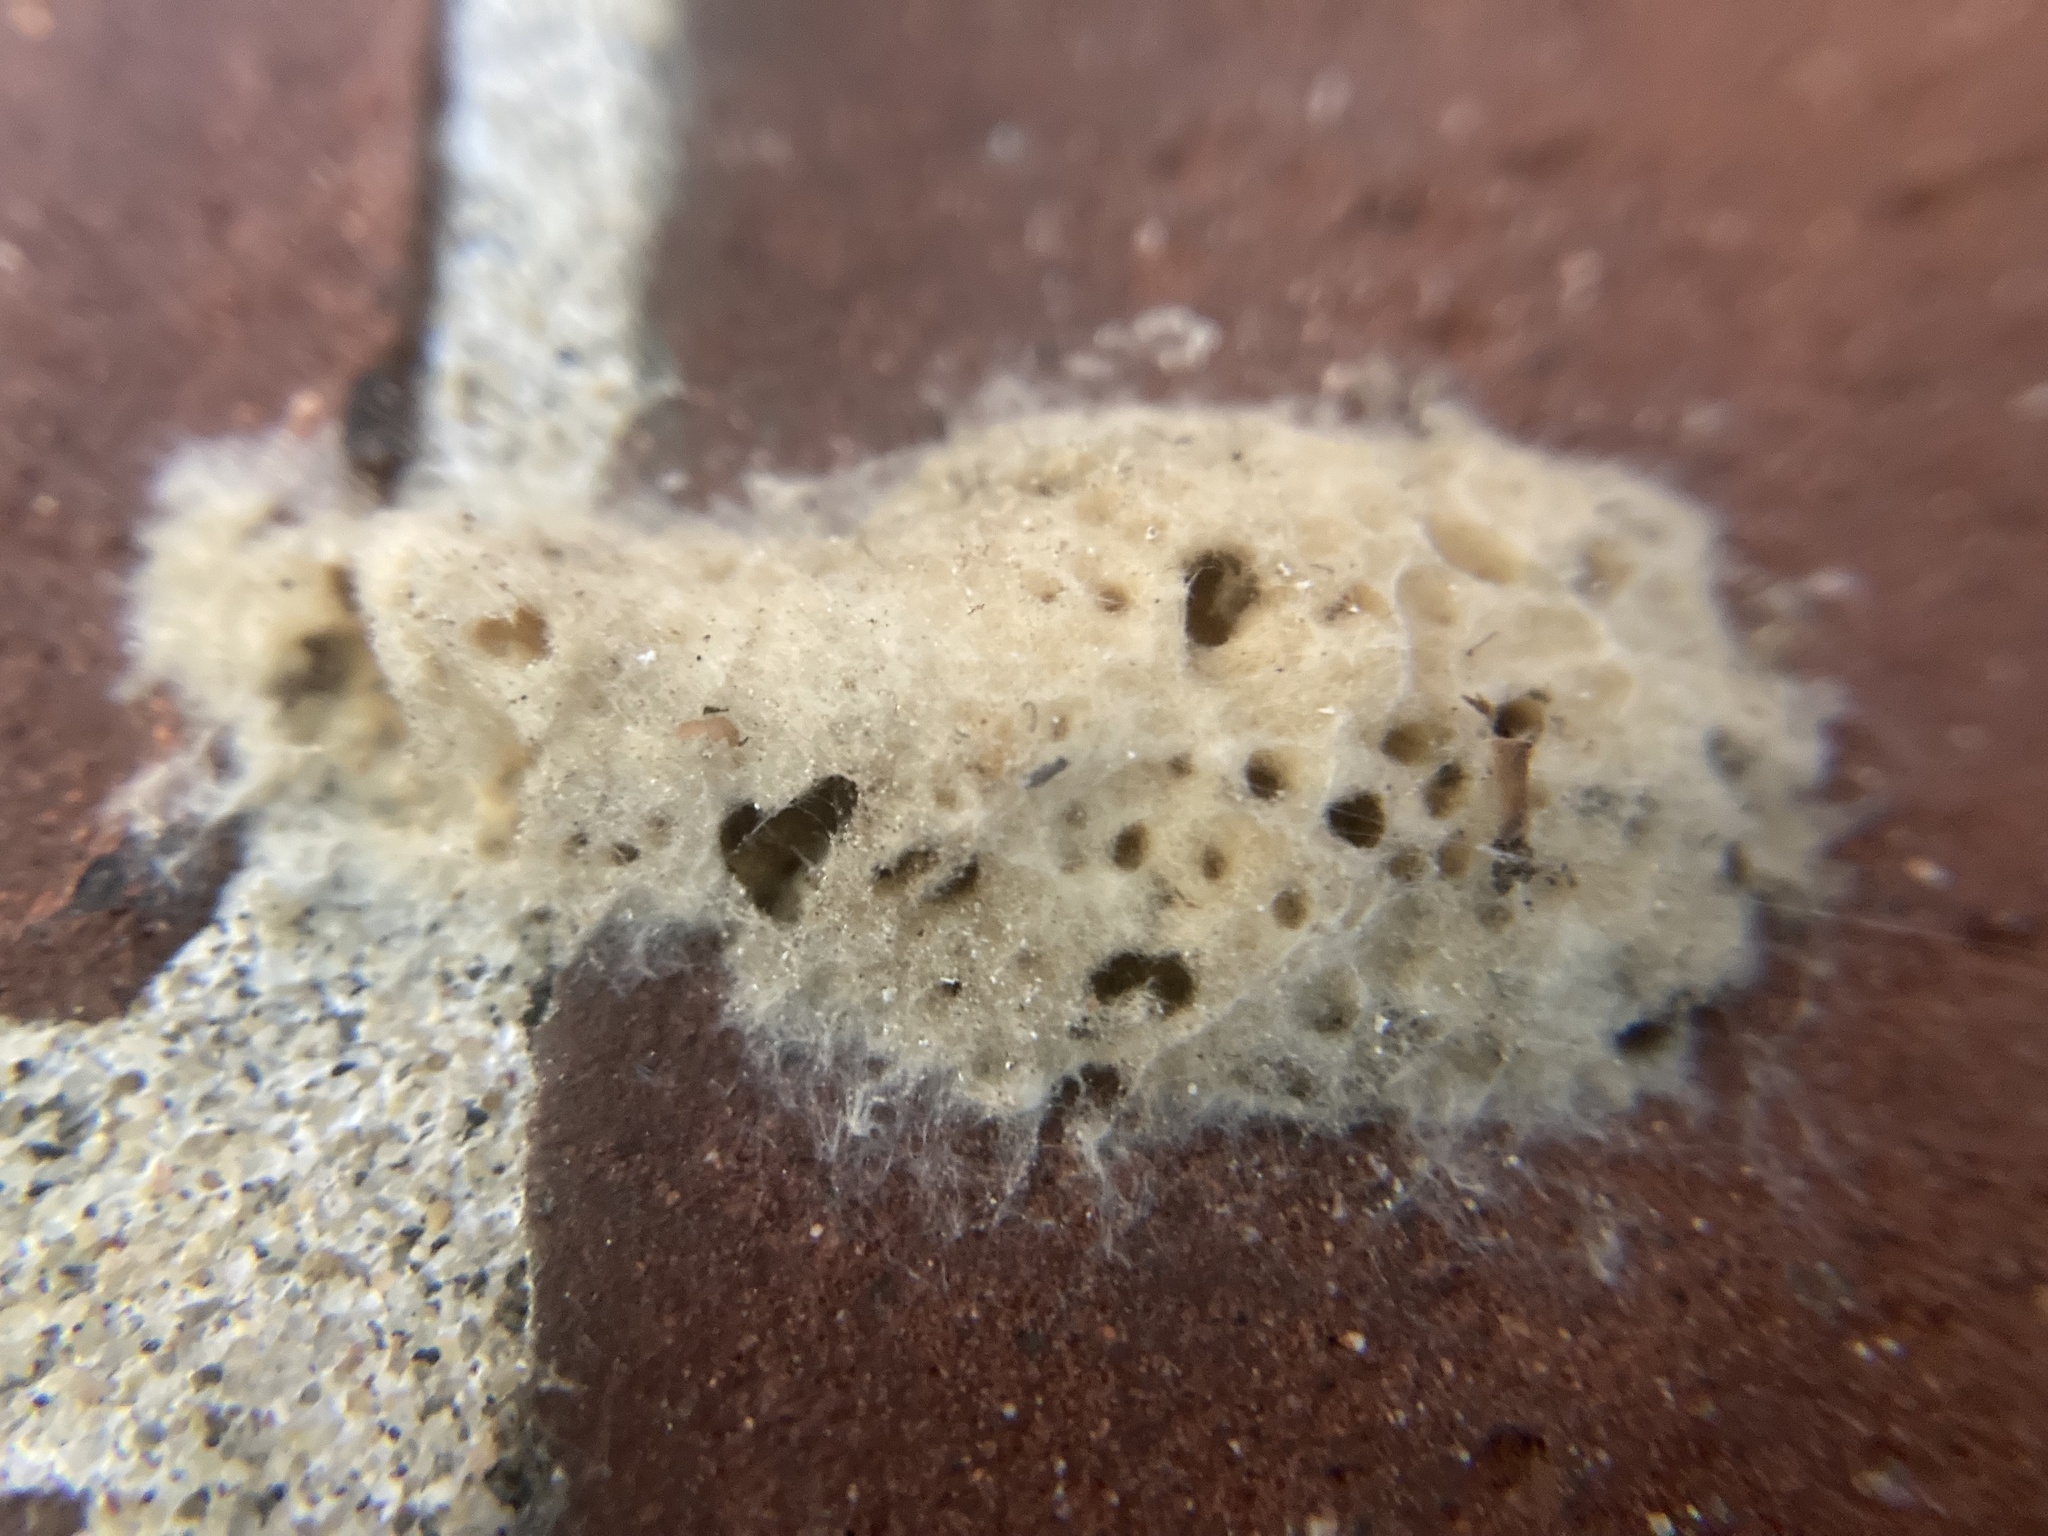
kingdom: Animalia
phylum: Arthropoda
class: Insecta
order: Lepidoptera
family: Erebidae
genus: Lymantria
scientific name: Lymantria dispar
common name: Gypsy moth
